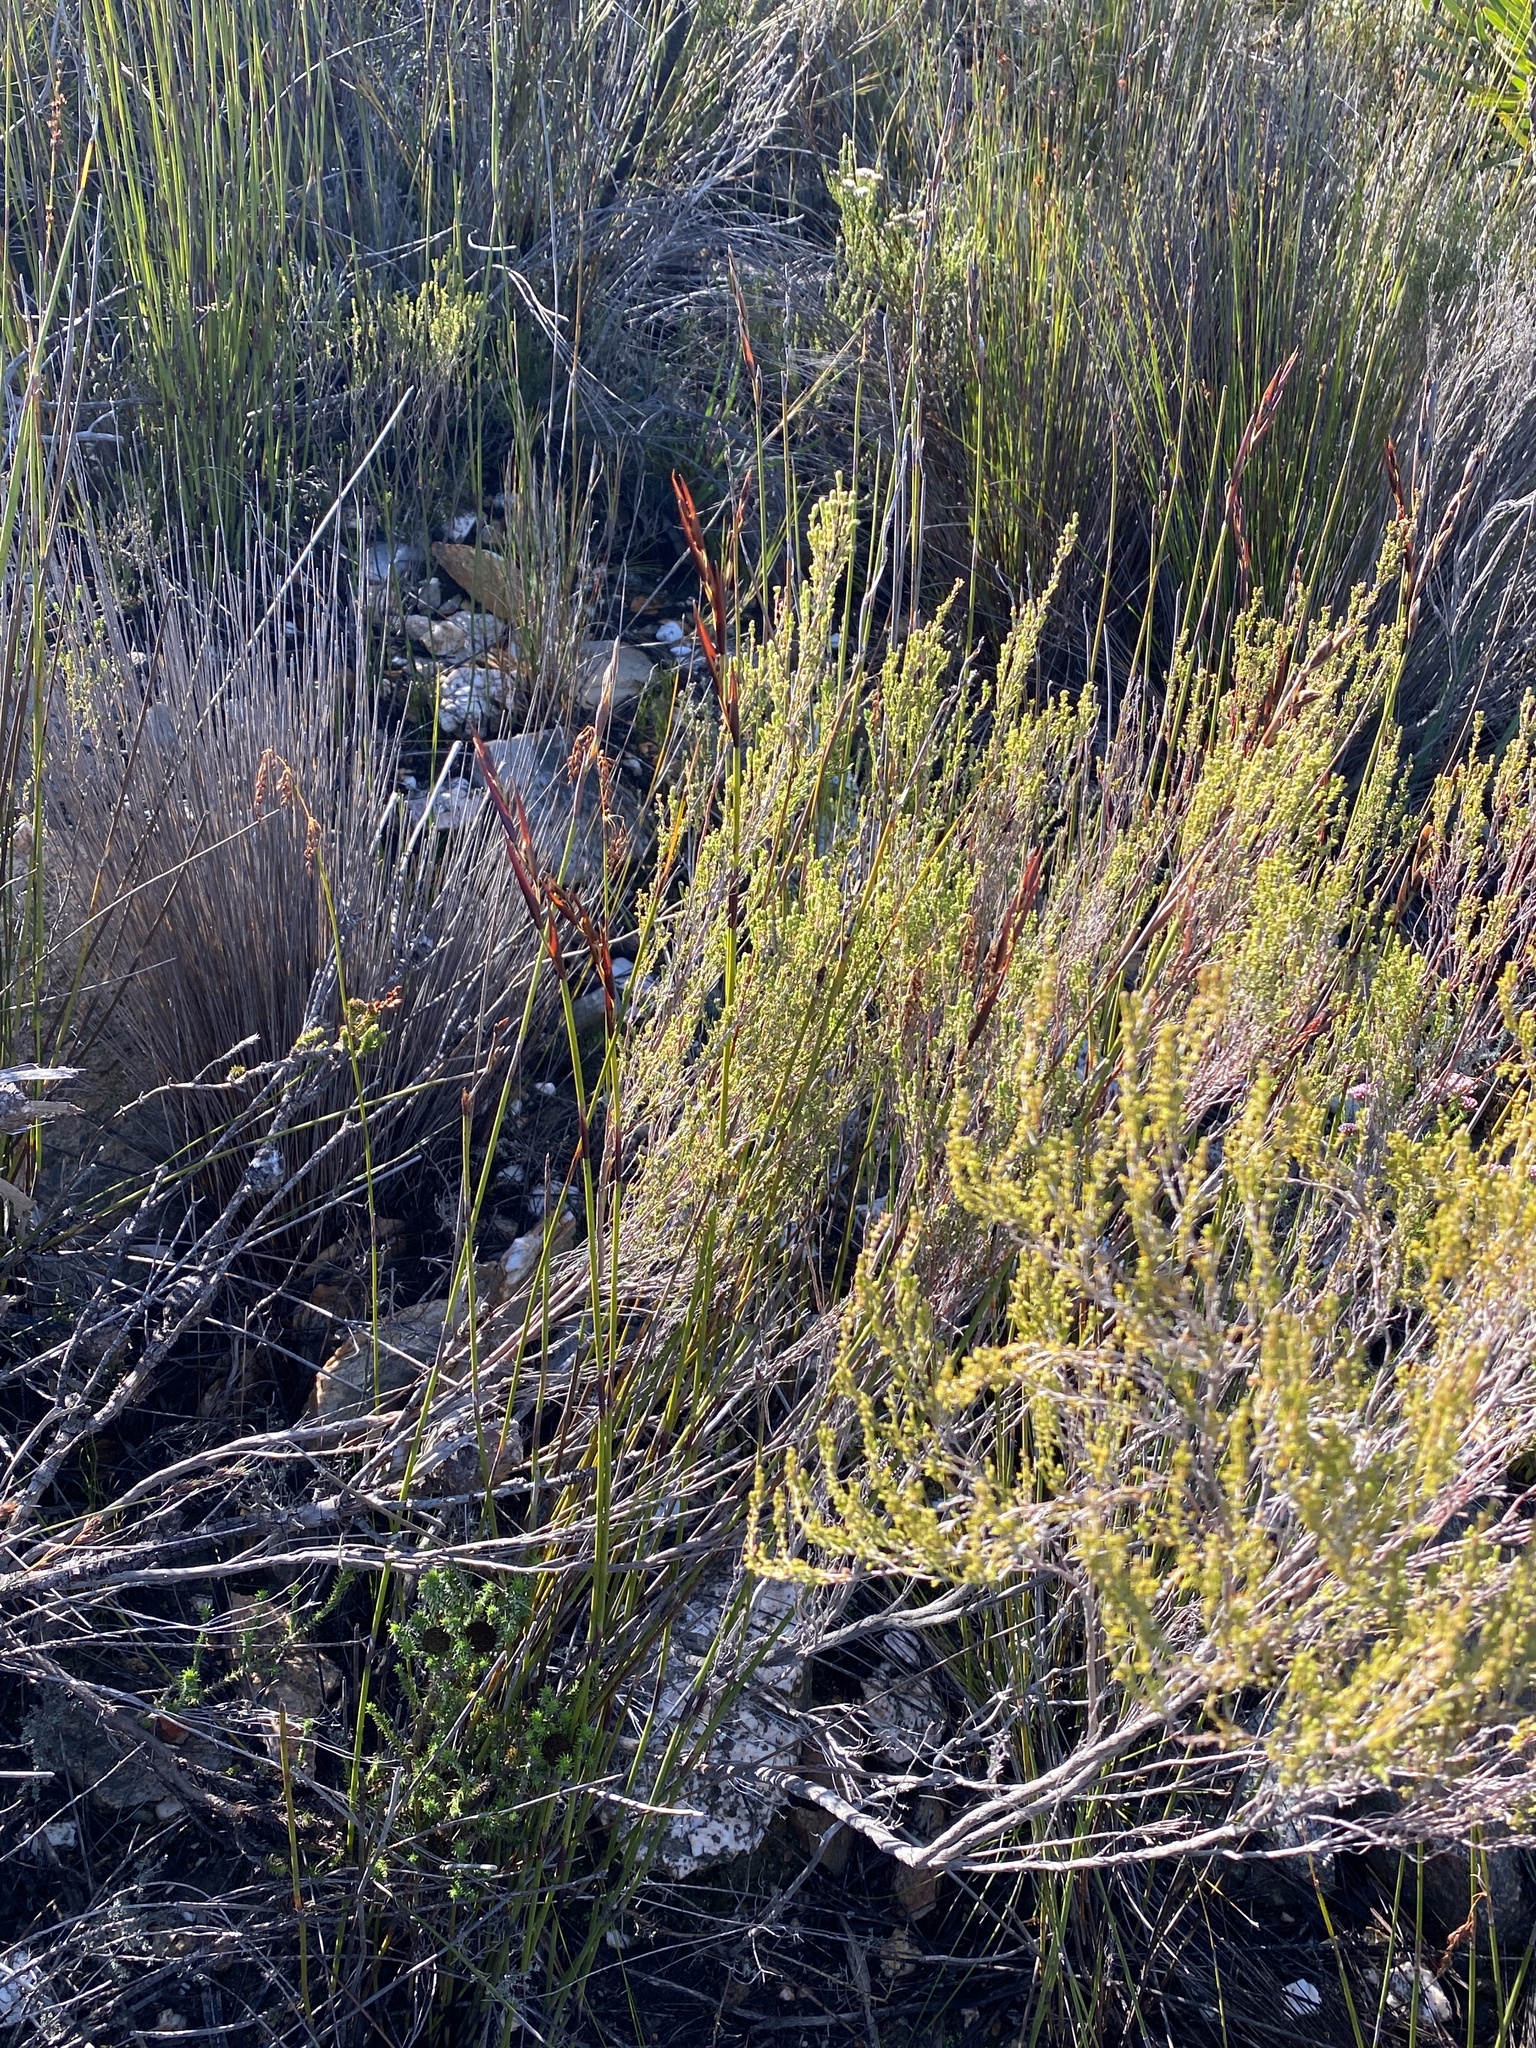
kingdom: Plantae
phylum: Tracheophyta
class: Liliopsida
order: Poales
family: Restionaceae
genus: Cannomois
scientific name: Cannomois scirpoides
